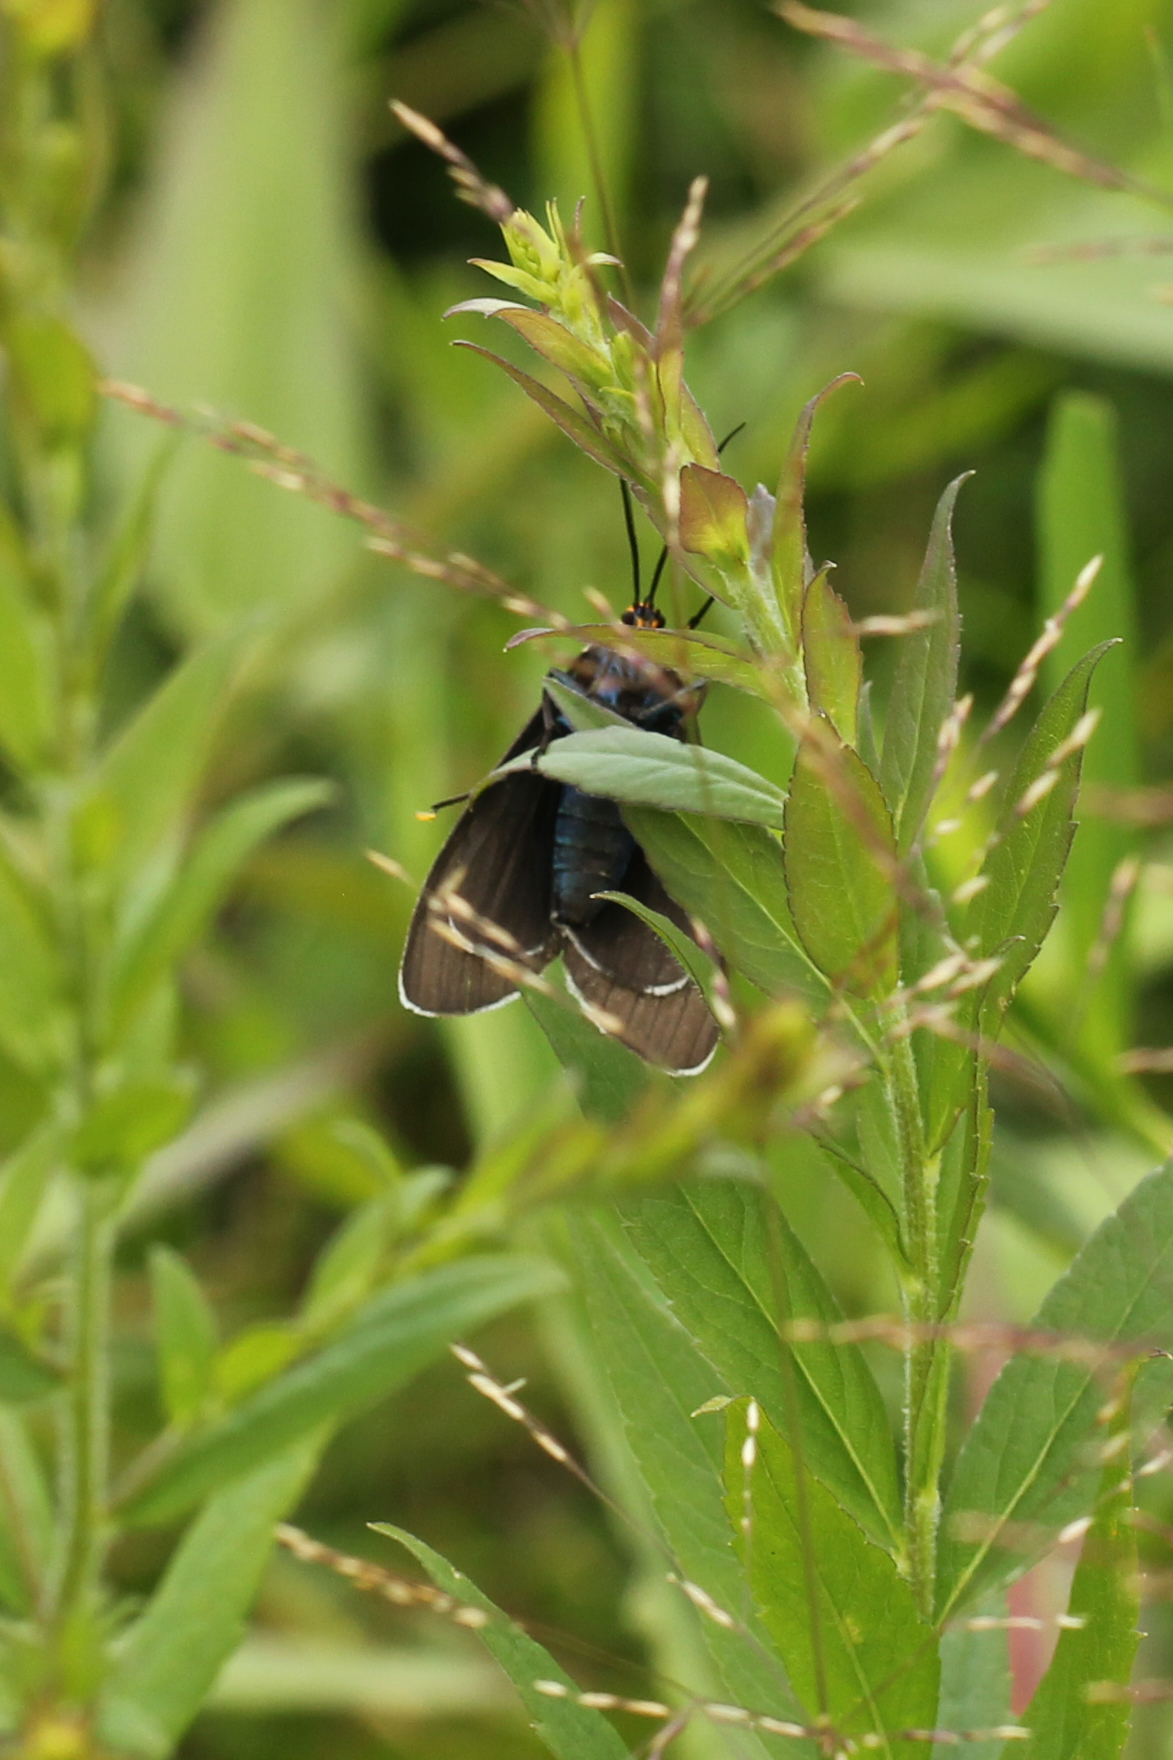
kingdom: Animalia
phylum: Arthropoda
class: Insecta
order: Lepidoptera
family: Erebidae
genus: Ctenucha
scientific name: Ctenucha virginica
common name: Virginia ctenucha moth
